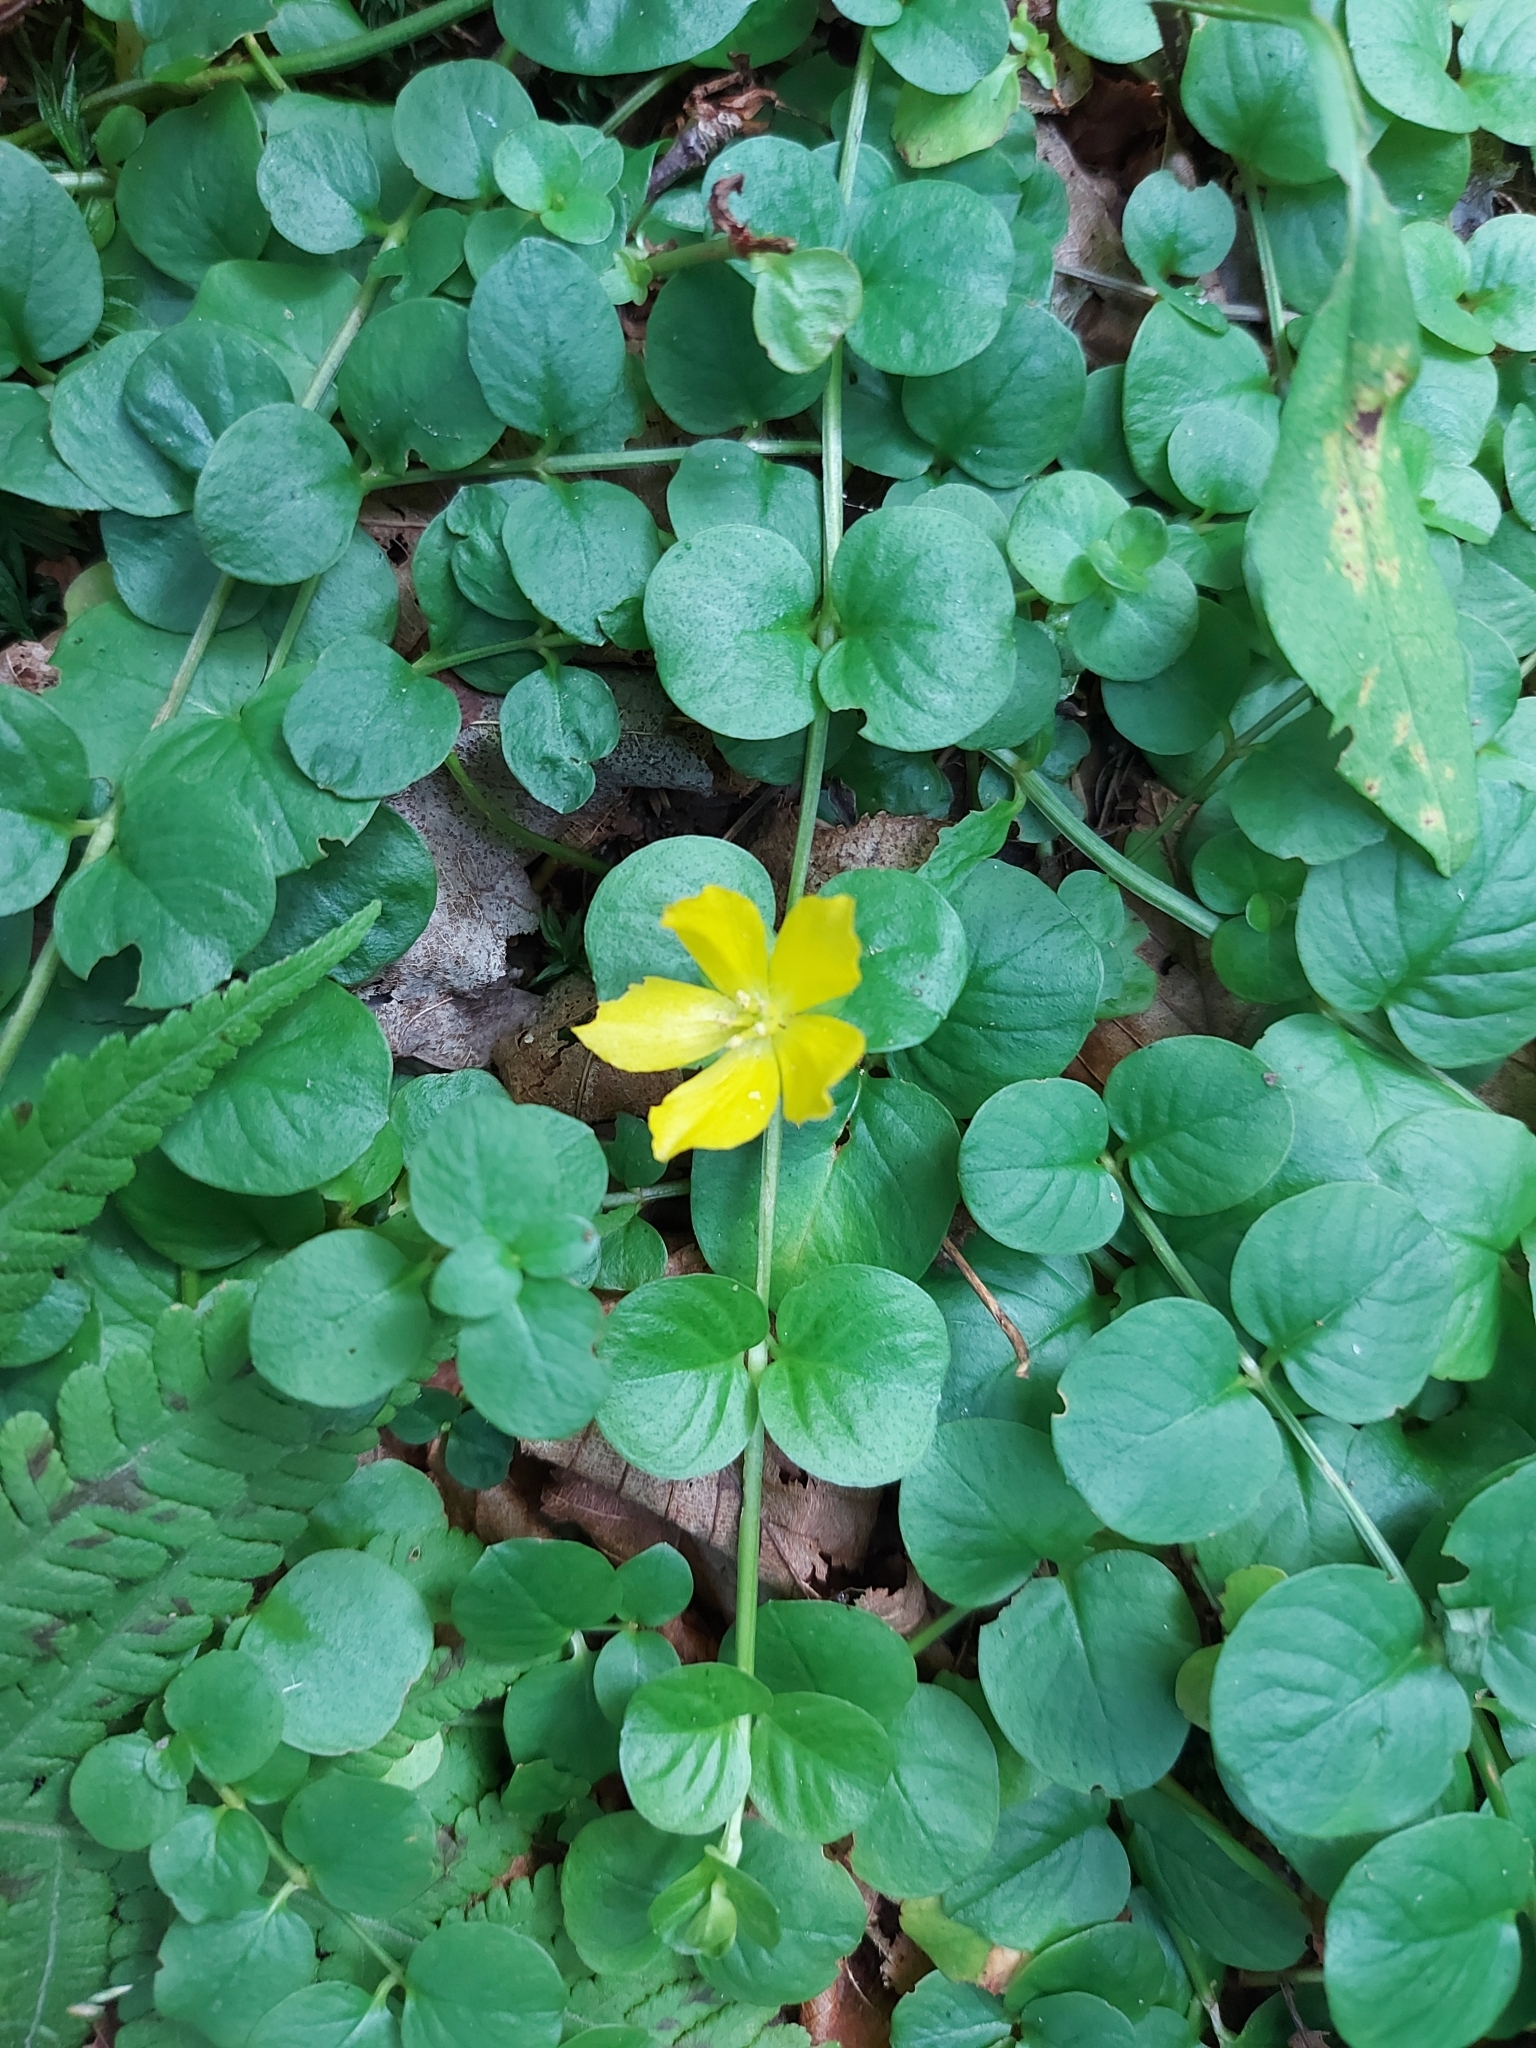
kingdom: Plantae
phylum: Tracheophyta
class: Magnoliopsida
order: Ericales
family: Primulaceae
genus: Lysimachia
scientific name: Lysimachia nummularia
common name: Moneywort
